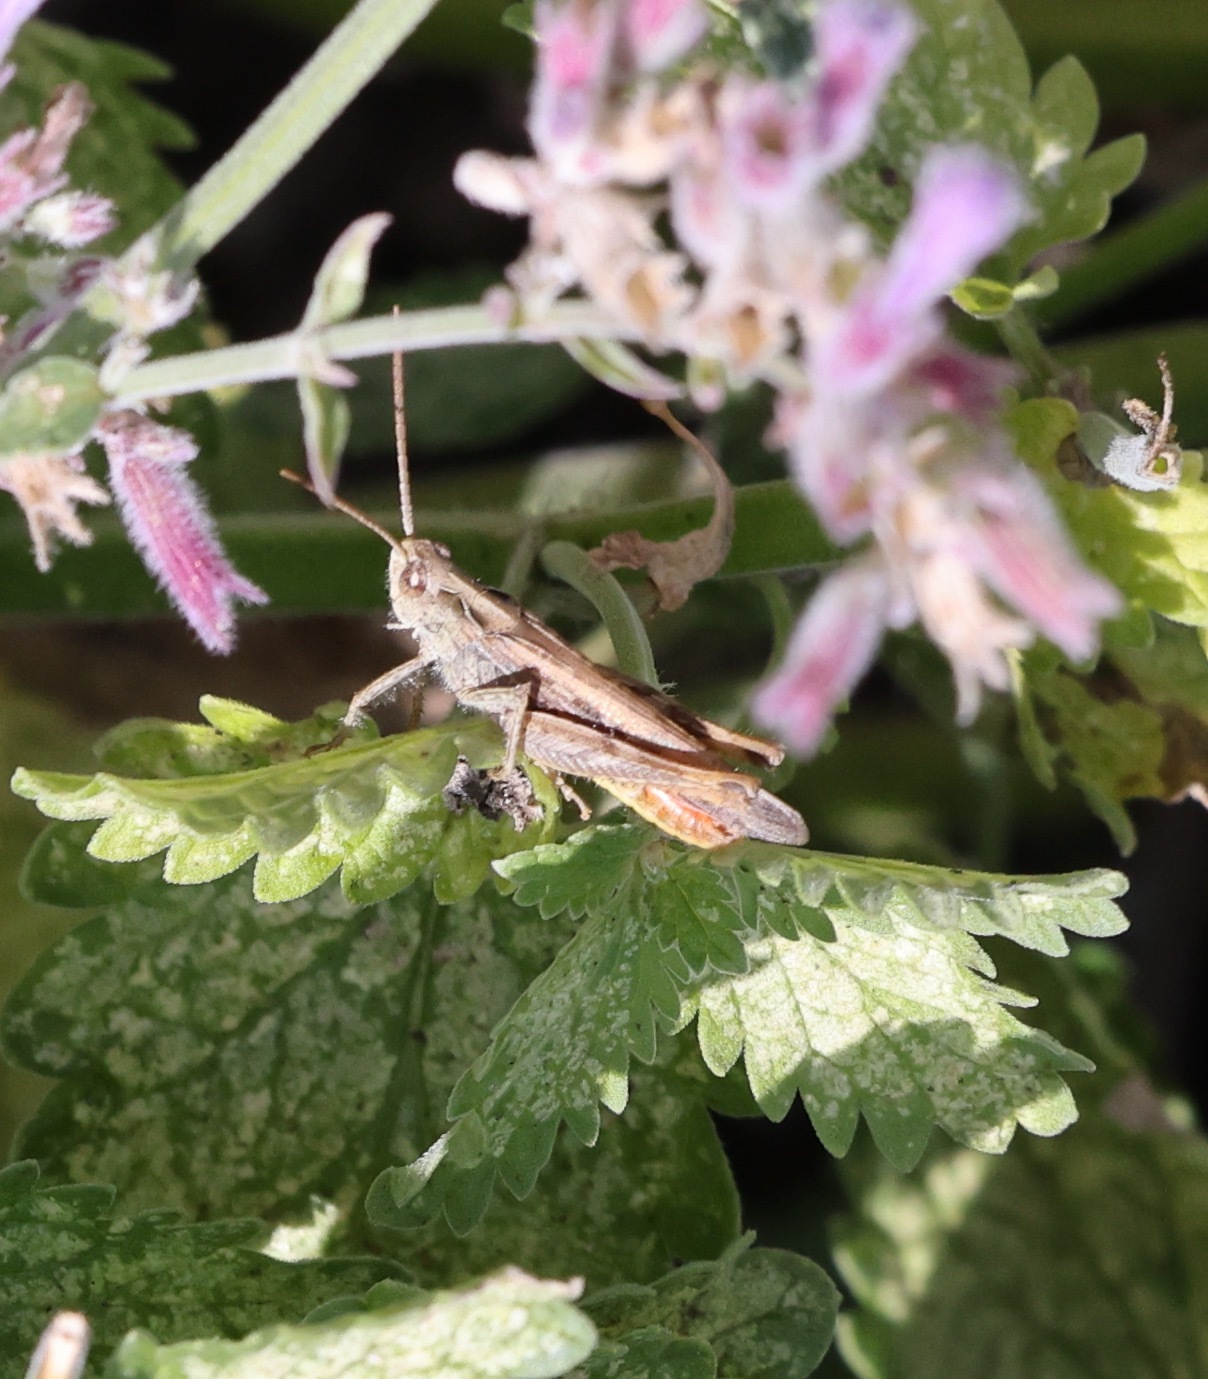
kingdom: Animalia
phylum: Arthropoda
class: Insecta
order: Orthoptera
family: Acrididae
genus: Chorthippus
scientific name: Chorthippus brunneus
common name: Field grasshopper
